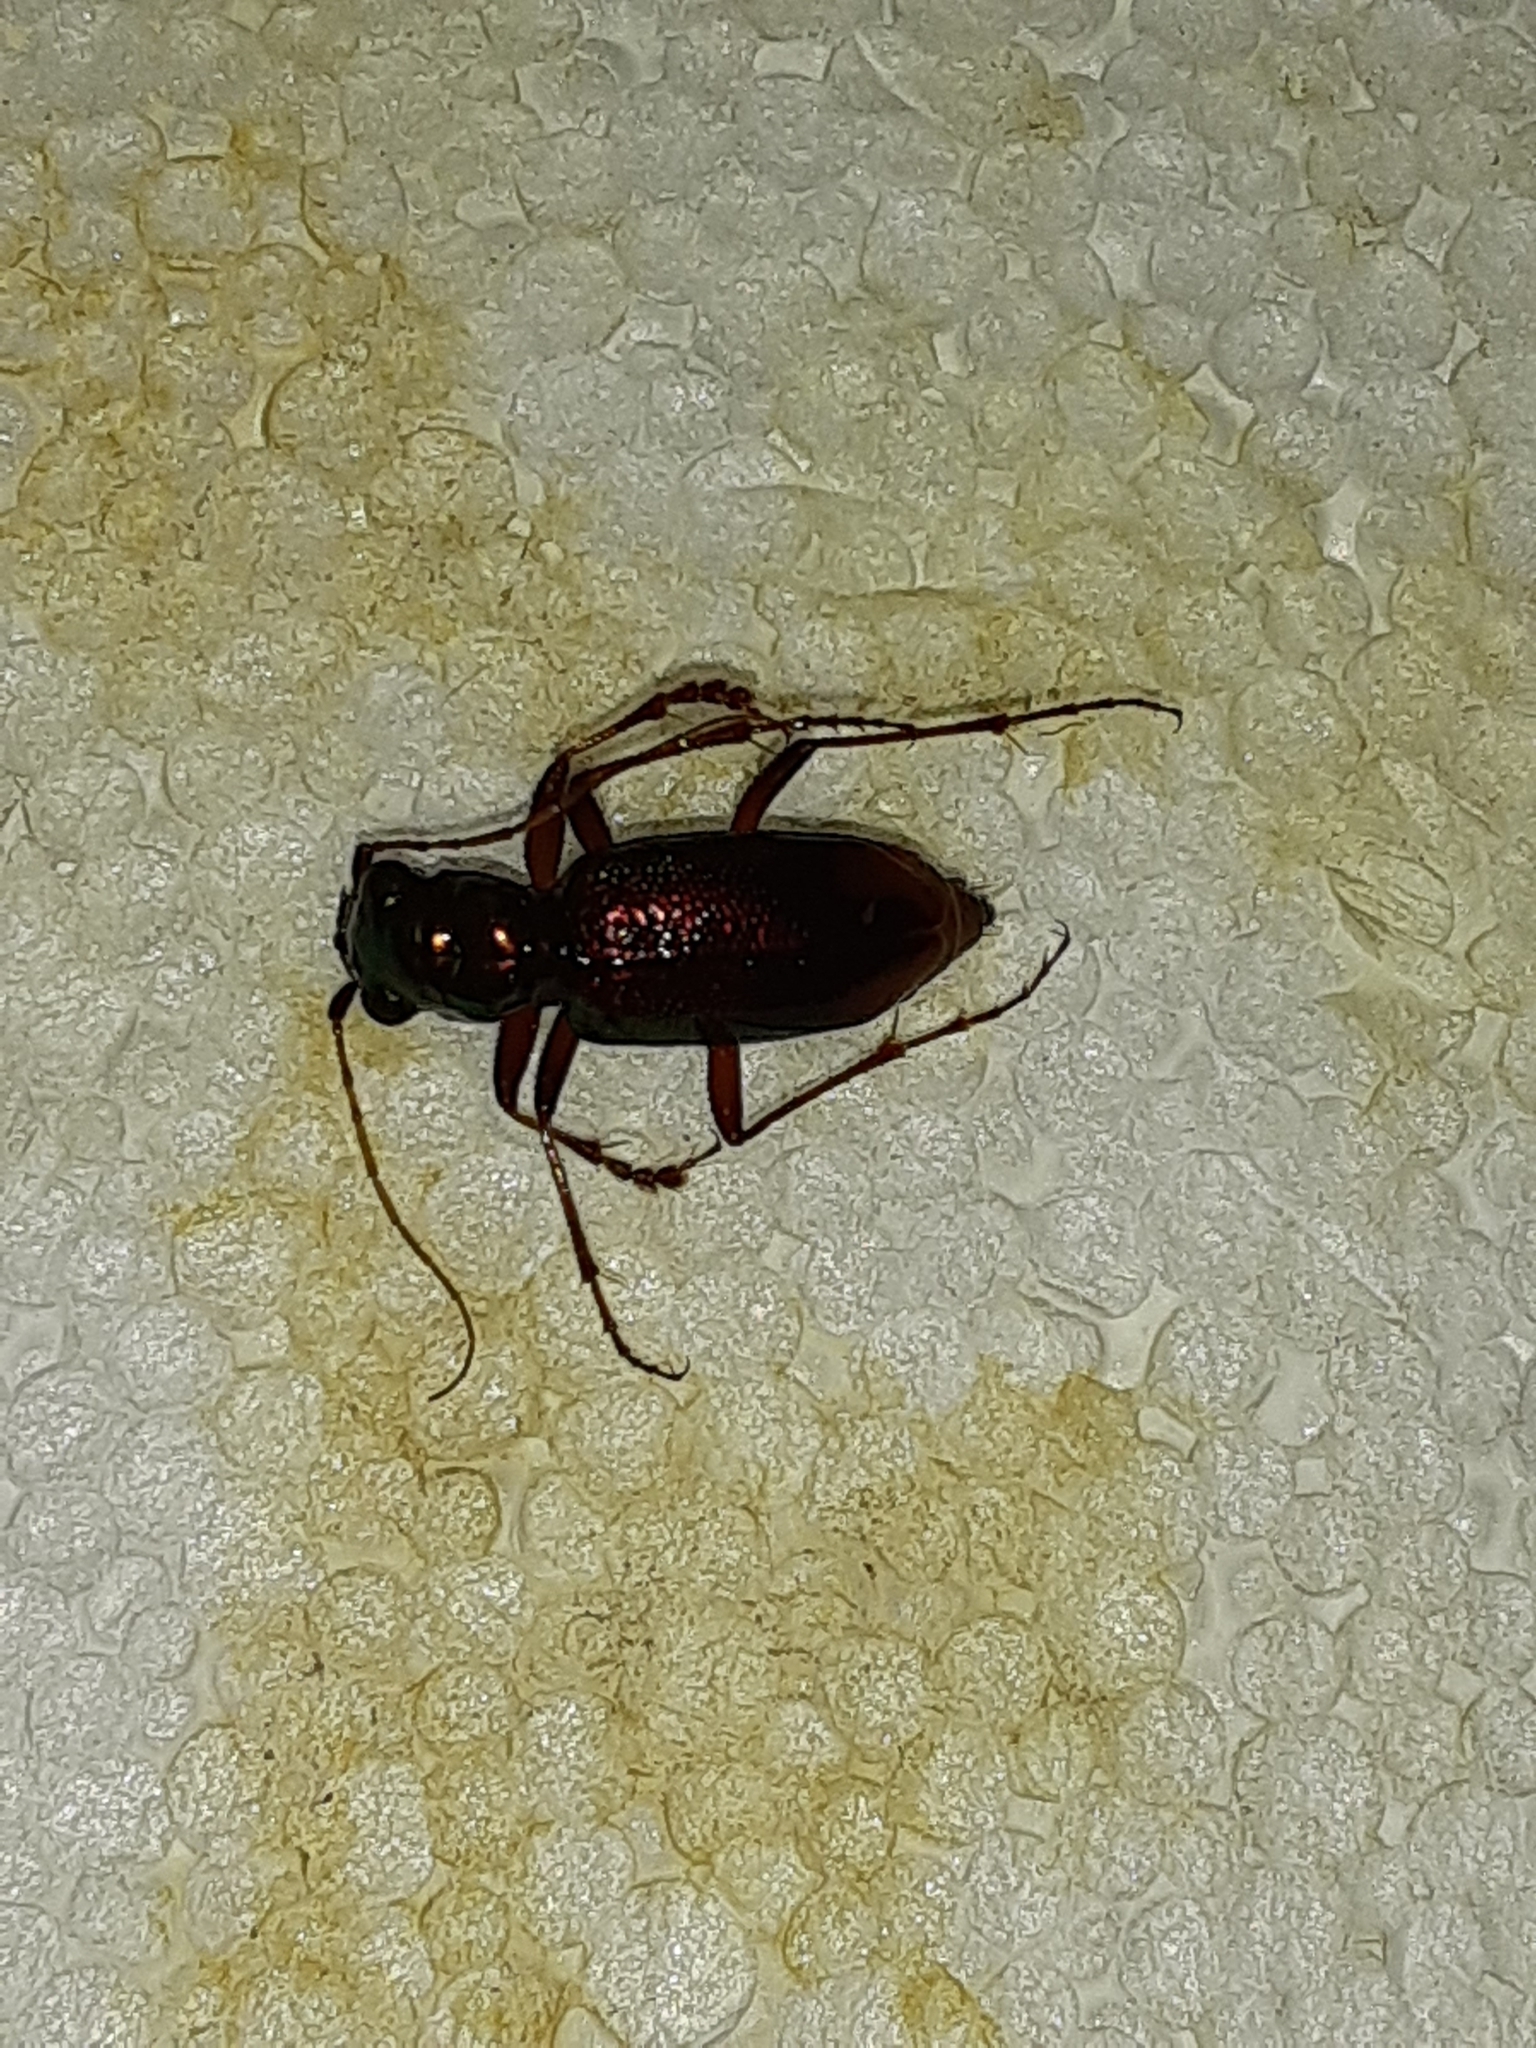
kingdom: Animalia
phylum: Arthropoda
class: Insecta
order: Coleoptera
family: Carabidae
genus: Tetracha
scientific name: Tetracha carolina
